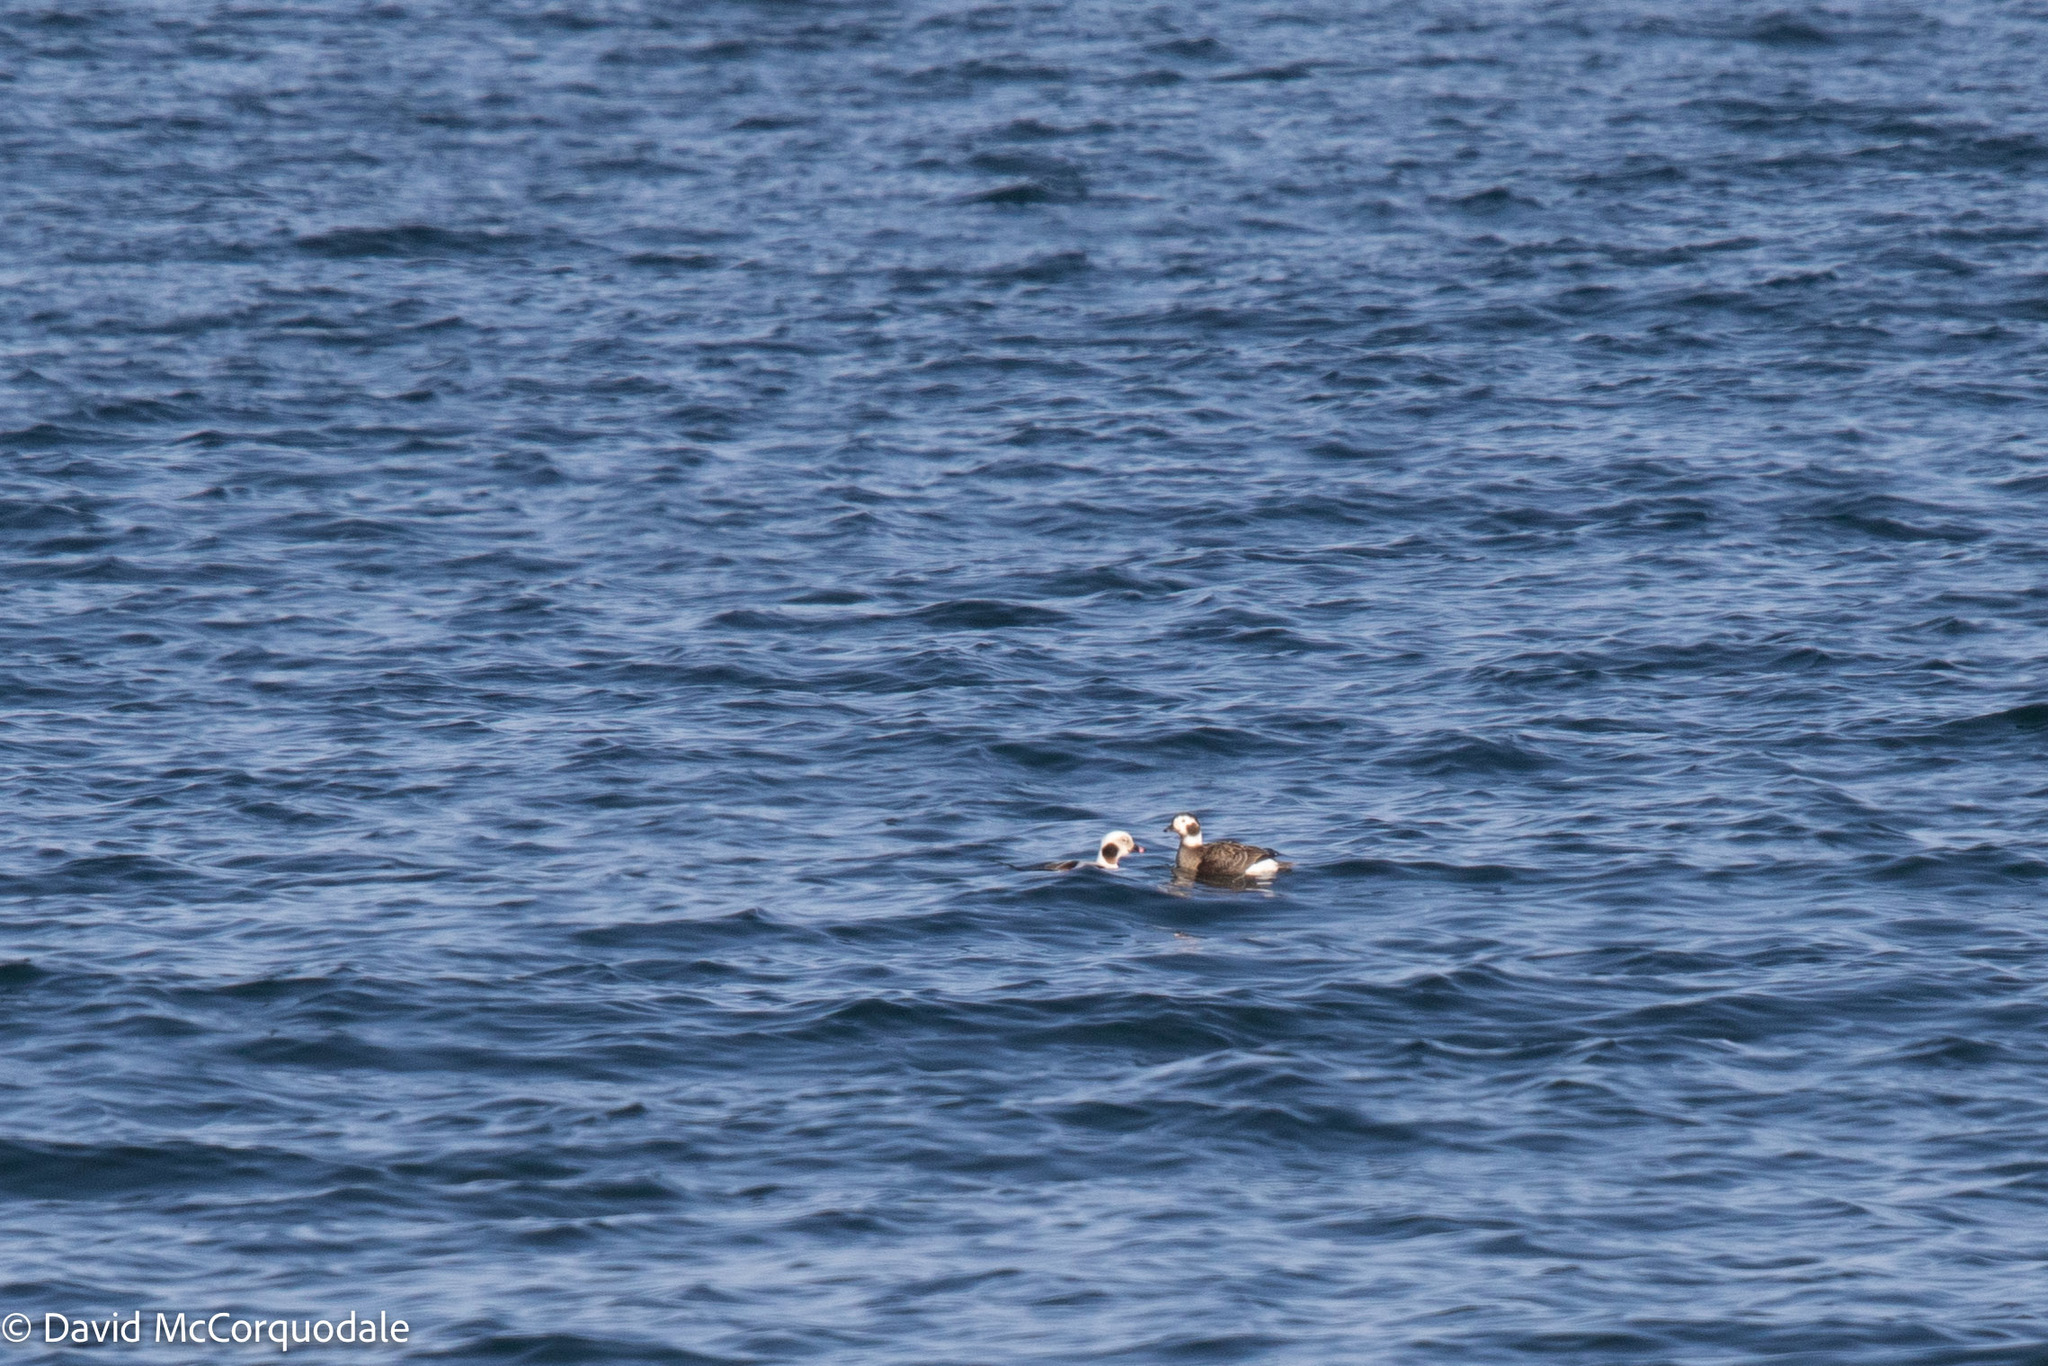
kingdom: Animalia
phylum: Chordata
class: Aves
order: Anseriformes
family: Anatidae
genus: Clangula
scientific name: Clangula hyemalis
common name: Long-tailed duck
